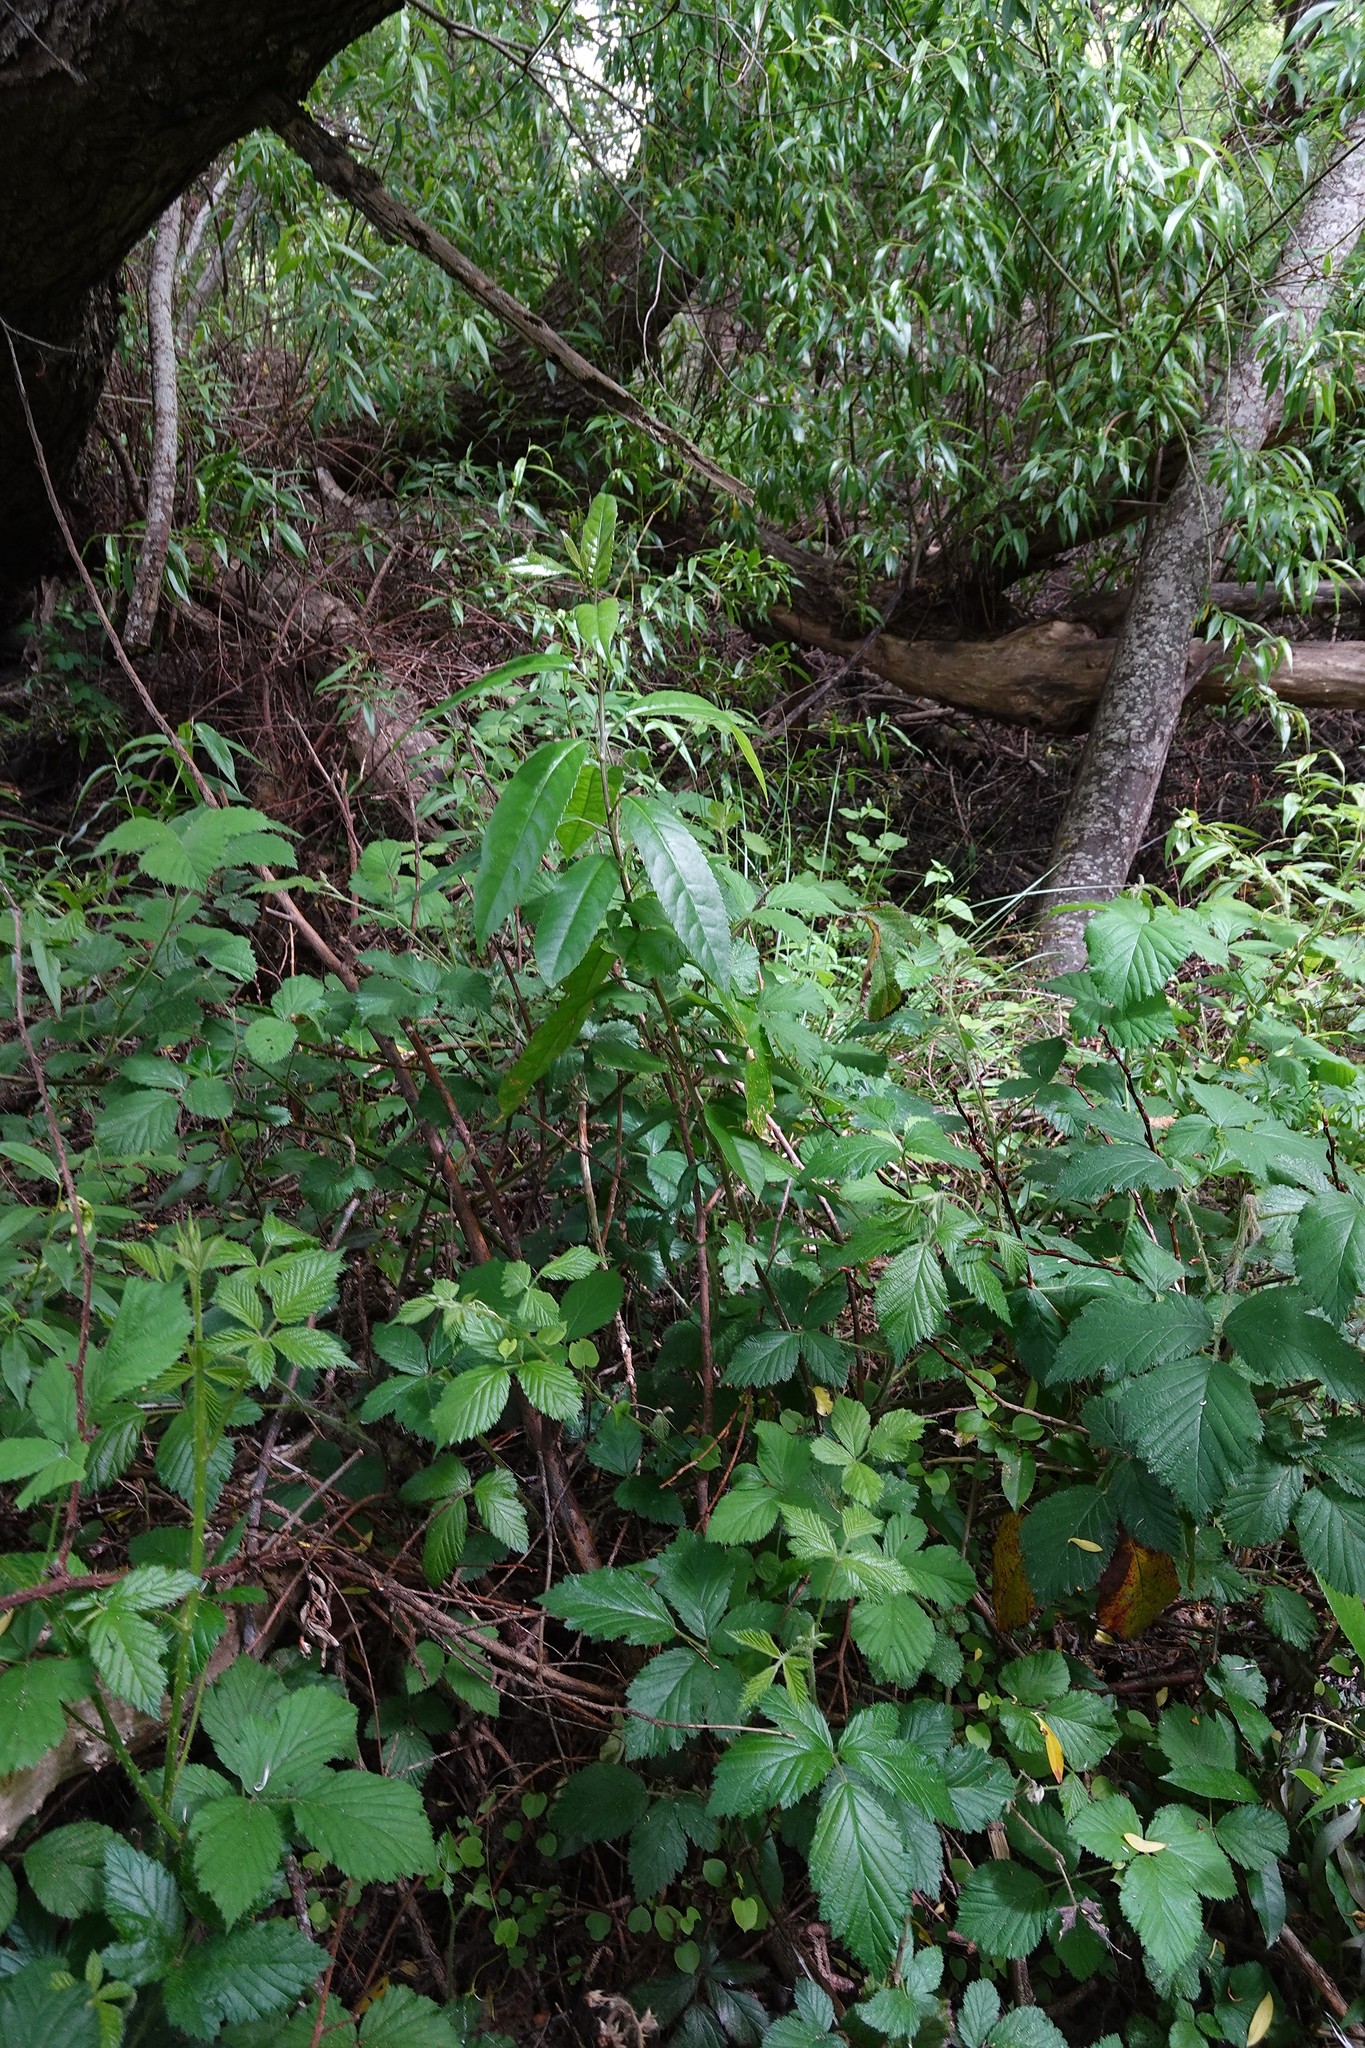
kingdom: Plantae
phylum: Tracheophyta
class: Magnoliopsida
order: Malpighiales
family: Violaceae
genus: Melicytus
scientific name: Melicytus ramiflorus
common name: Mahoe
